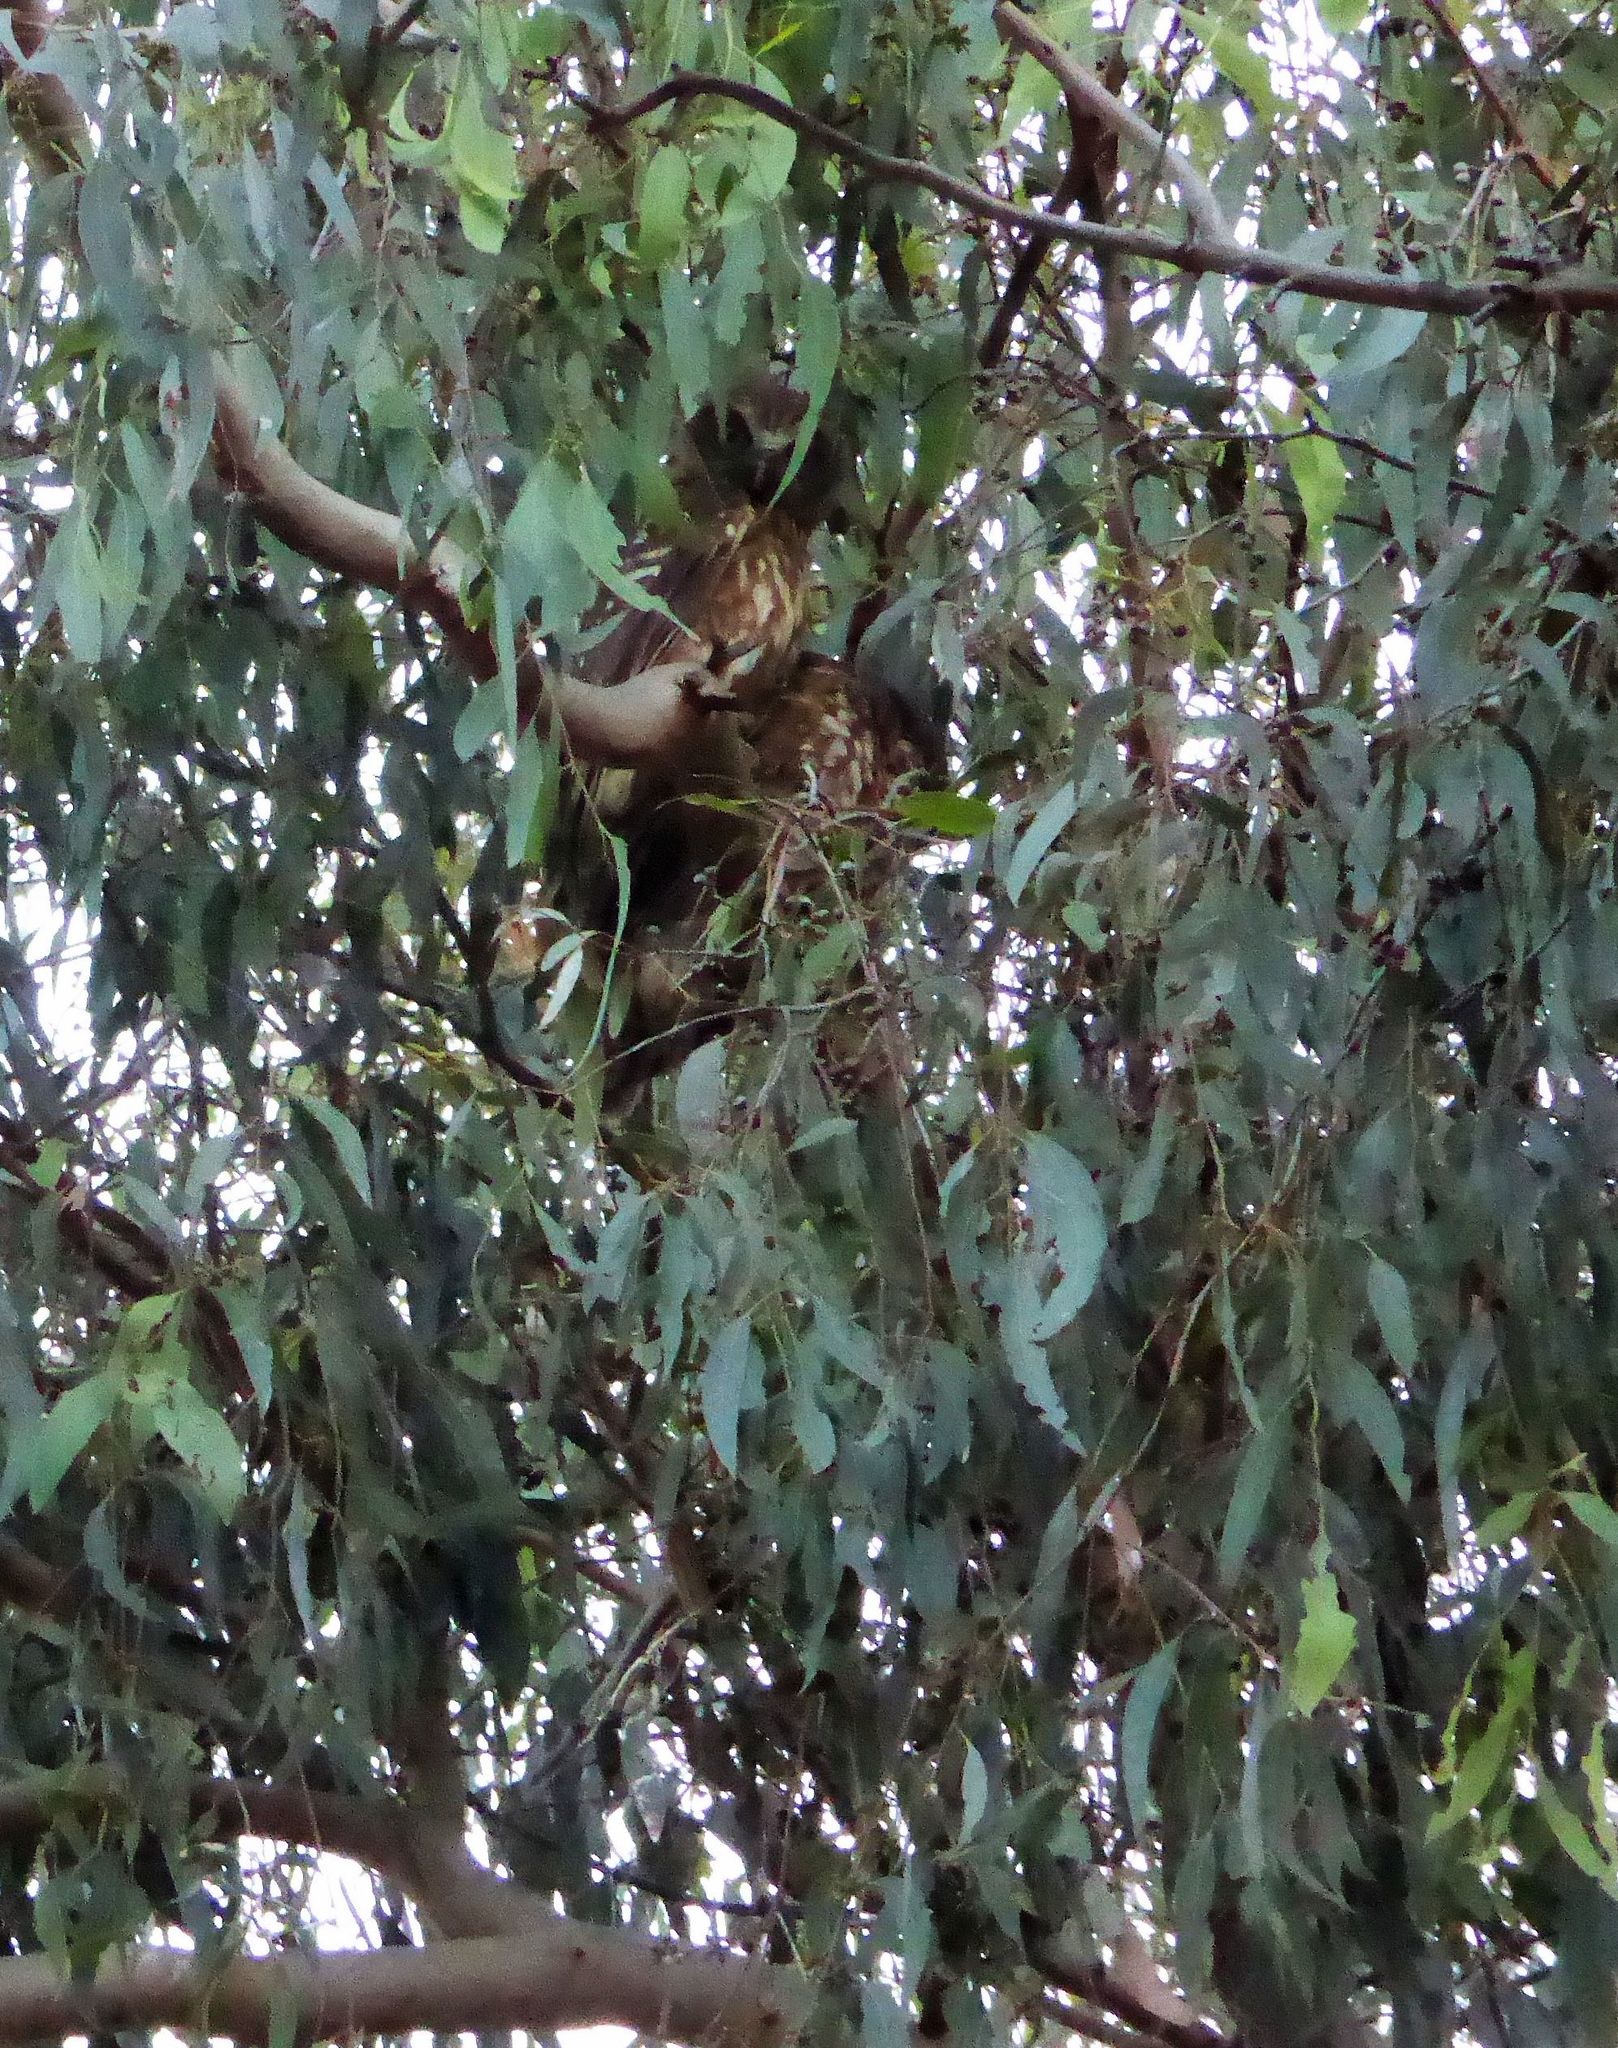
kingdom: Animalia
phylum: Chordata
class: Aves
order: Strigiformes
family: Strigidae
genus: Ninox
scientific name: Ninox boobook
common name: Southern boobook
